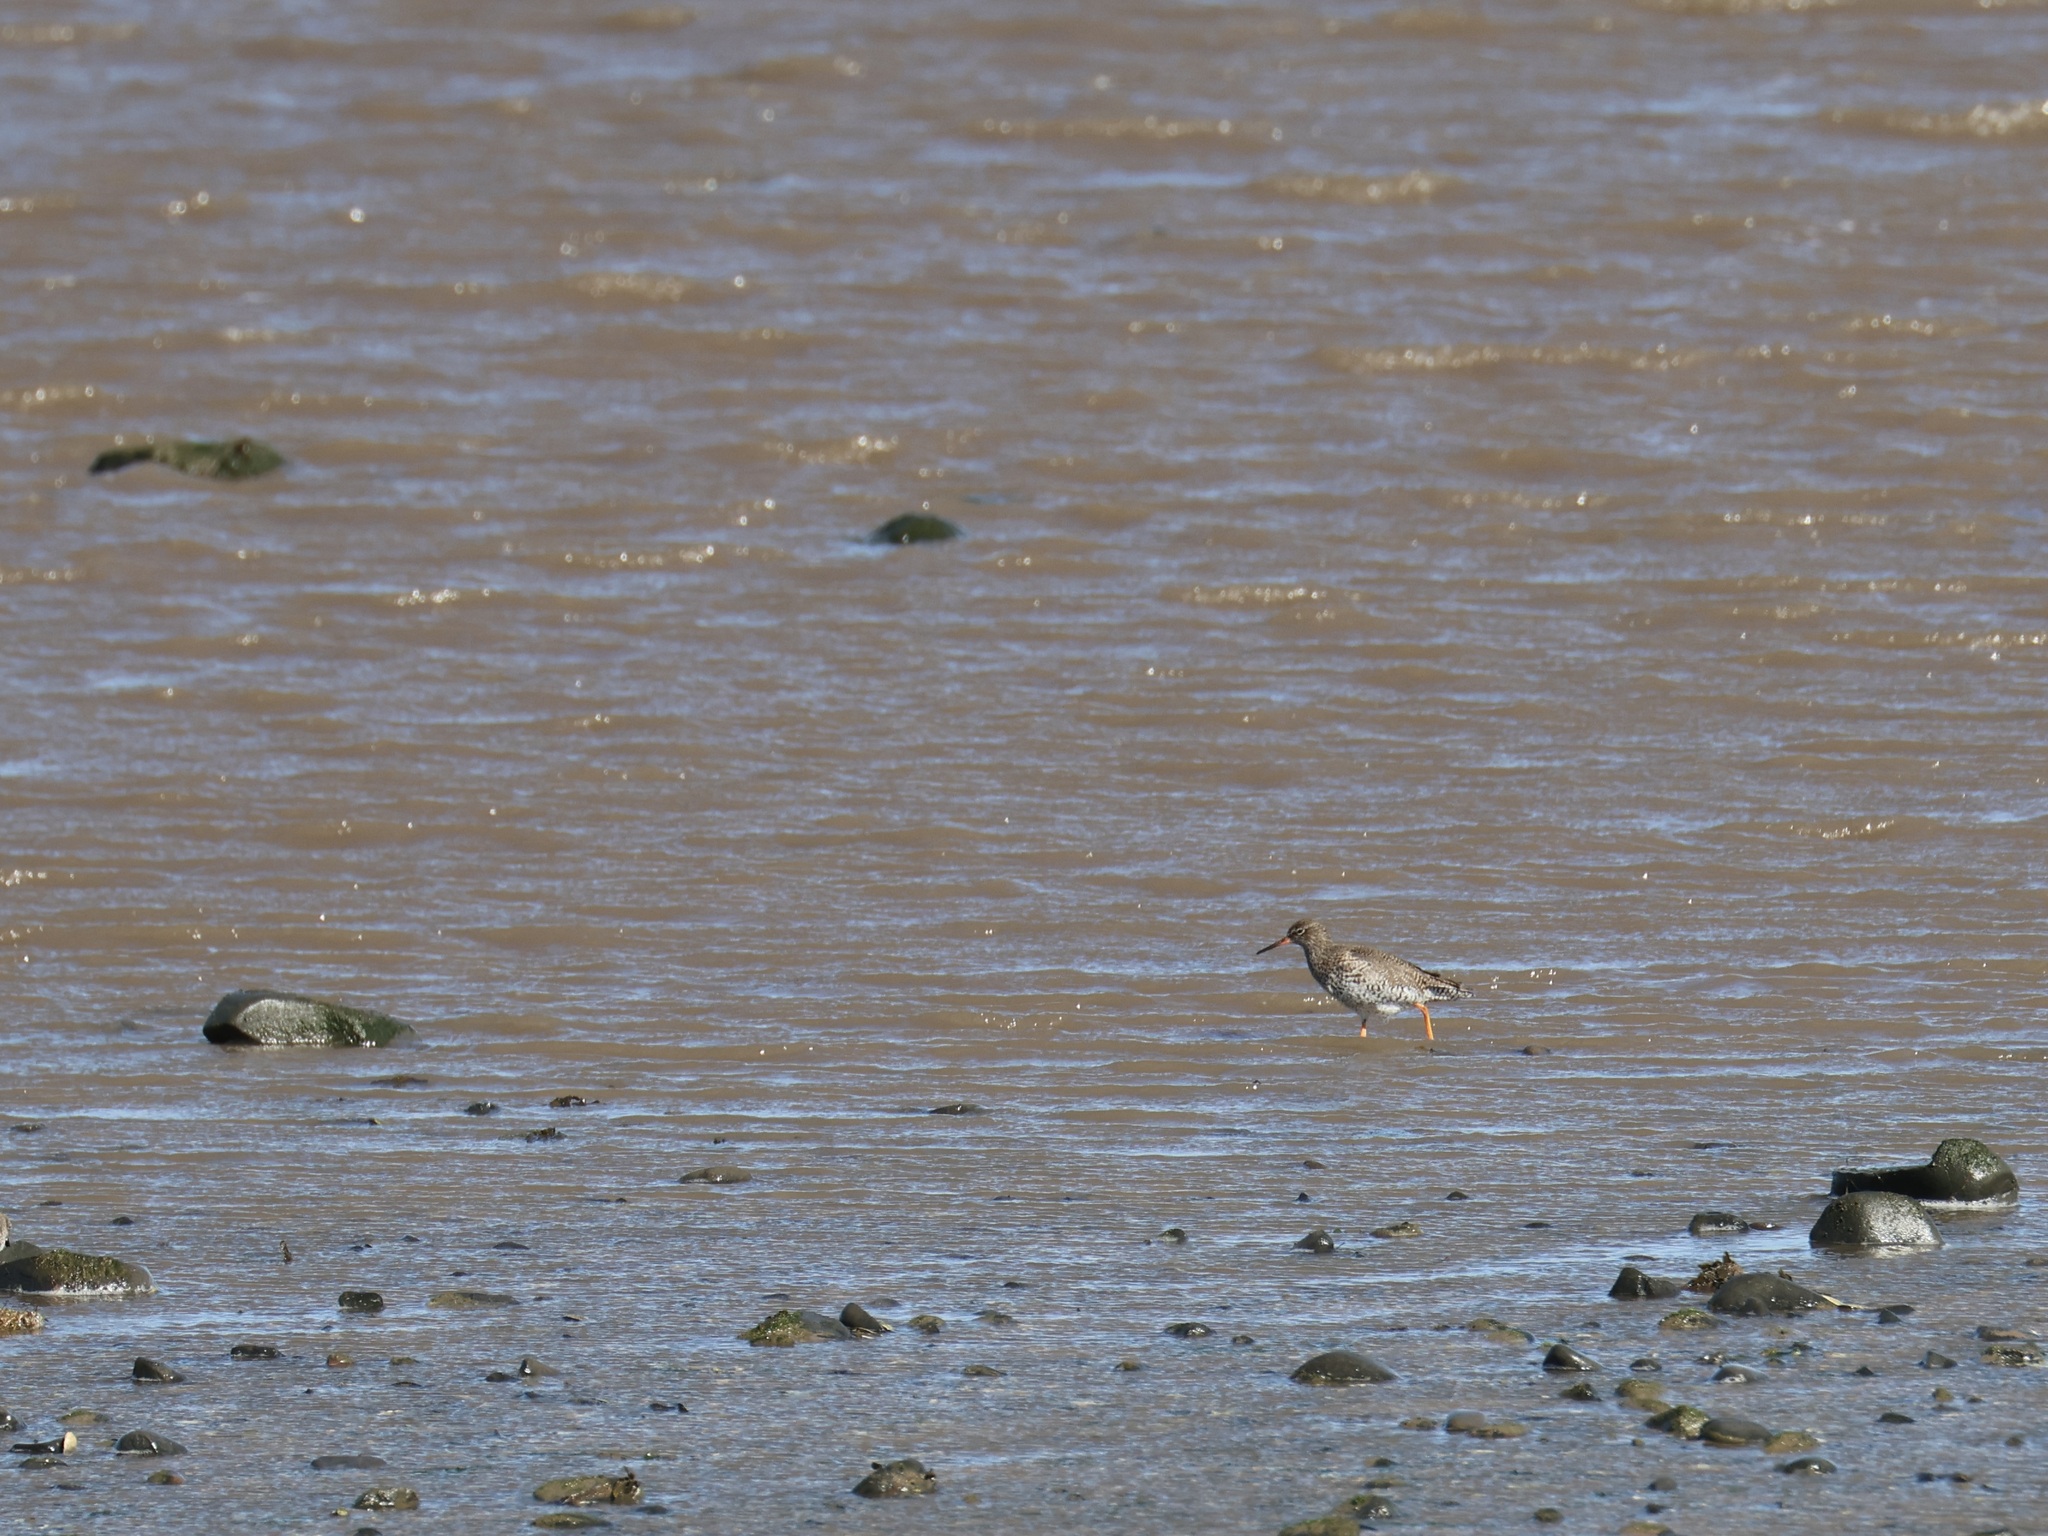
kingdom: Animalia
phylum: Chordata
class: Aves
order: Charadriiformes
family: Scolopacidae
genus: Tringa
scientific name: Tringa totanus
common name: Common redshank
